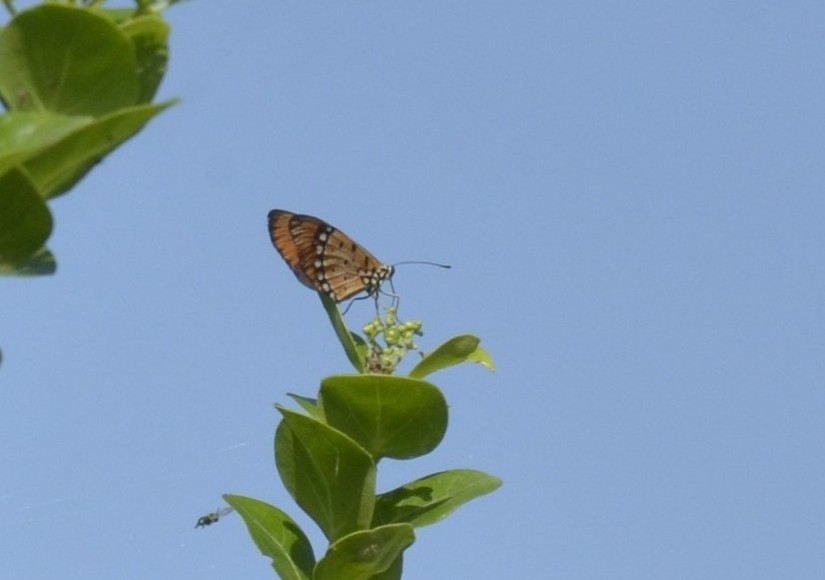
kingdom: Animalia
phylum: Arthropoda
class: Insecta
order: Lepidoptera
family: Nymphalidae
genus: Acraea
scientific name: Acraea terpsicore
